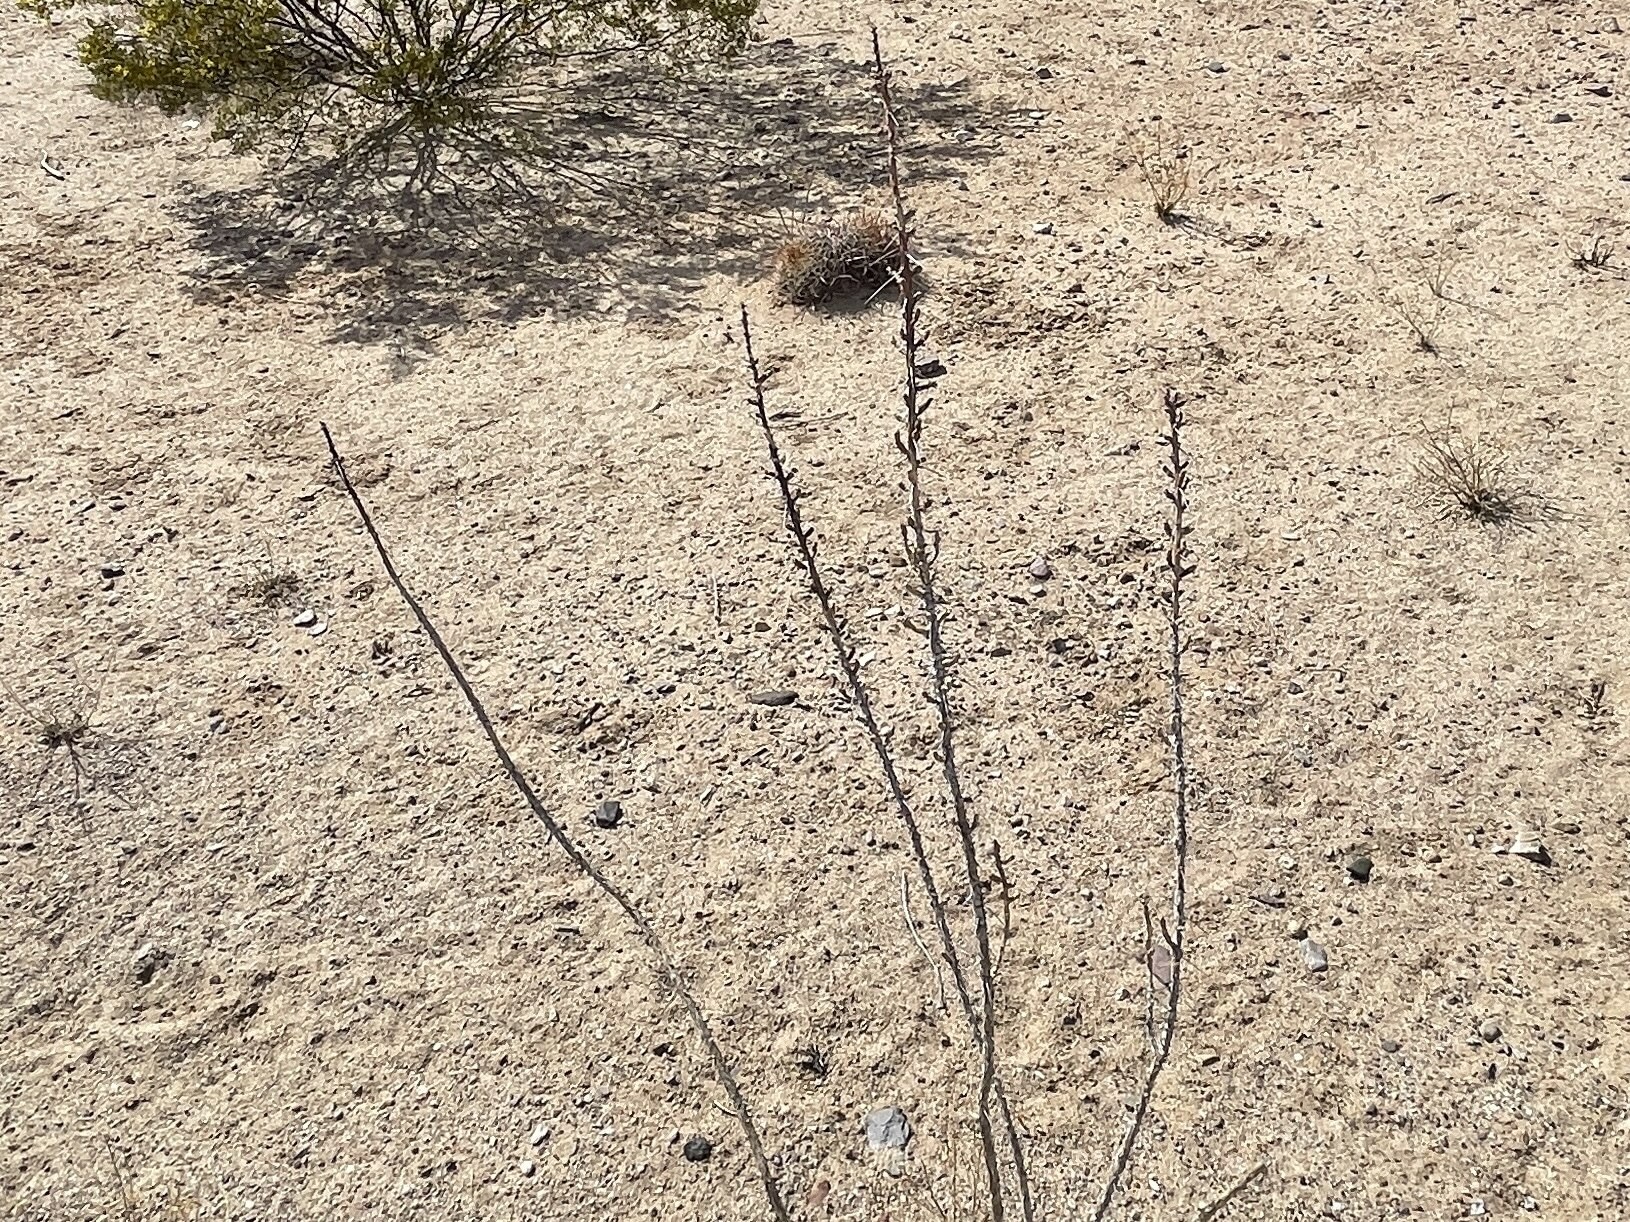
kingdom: Plantae
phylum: Tracheophyta
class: Magnoliopsida
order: Caryophyllales
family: Cactaceae
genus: Cylindropuntia
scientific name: Cylindropuntia leptocaulis
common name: Christmas cactus
